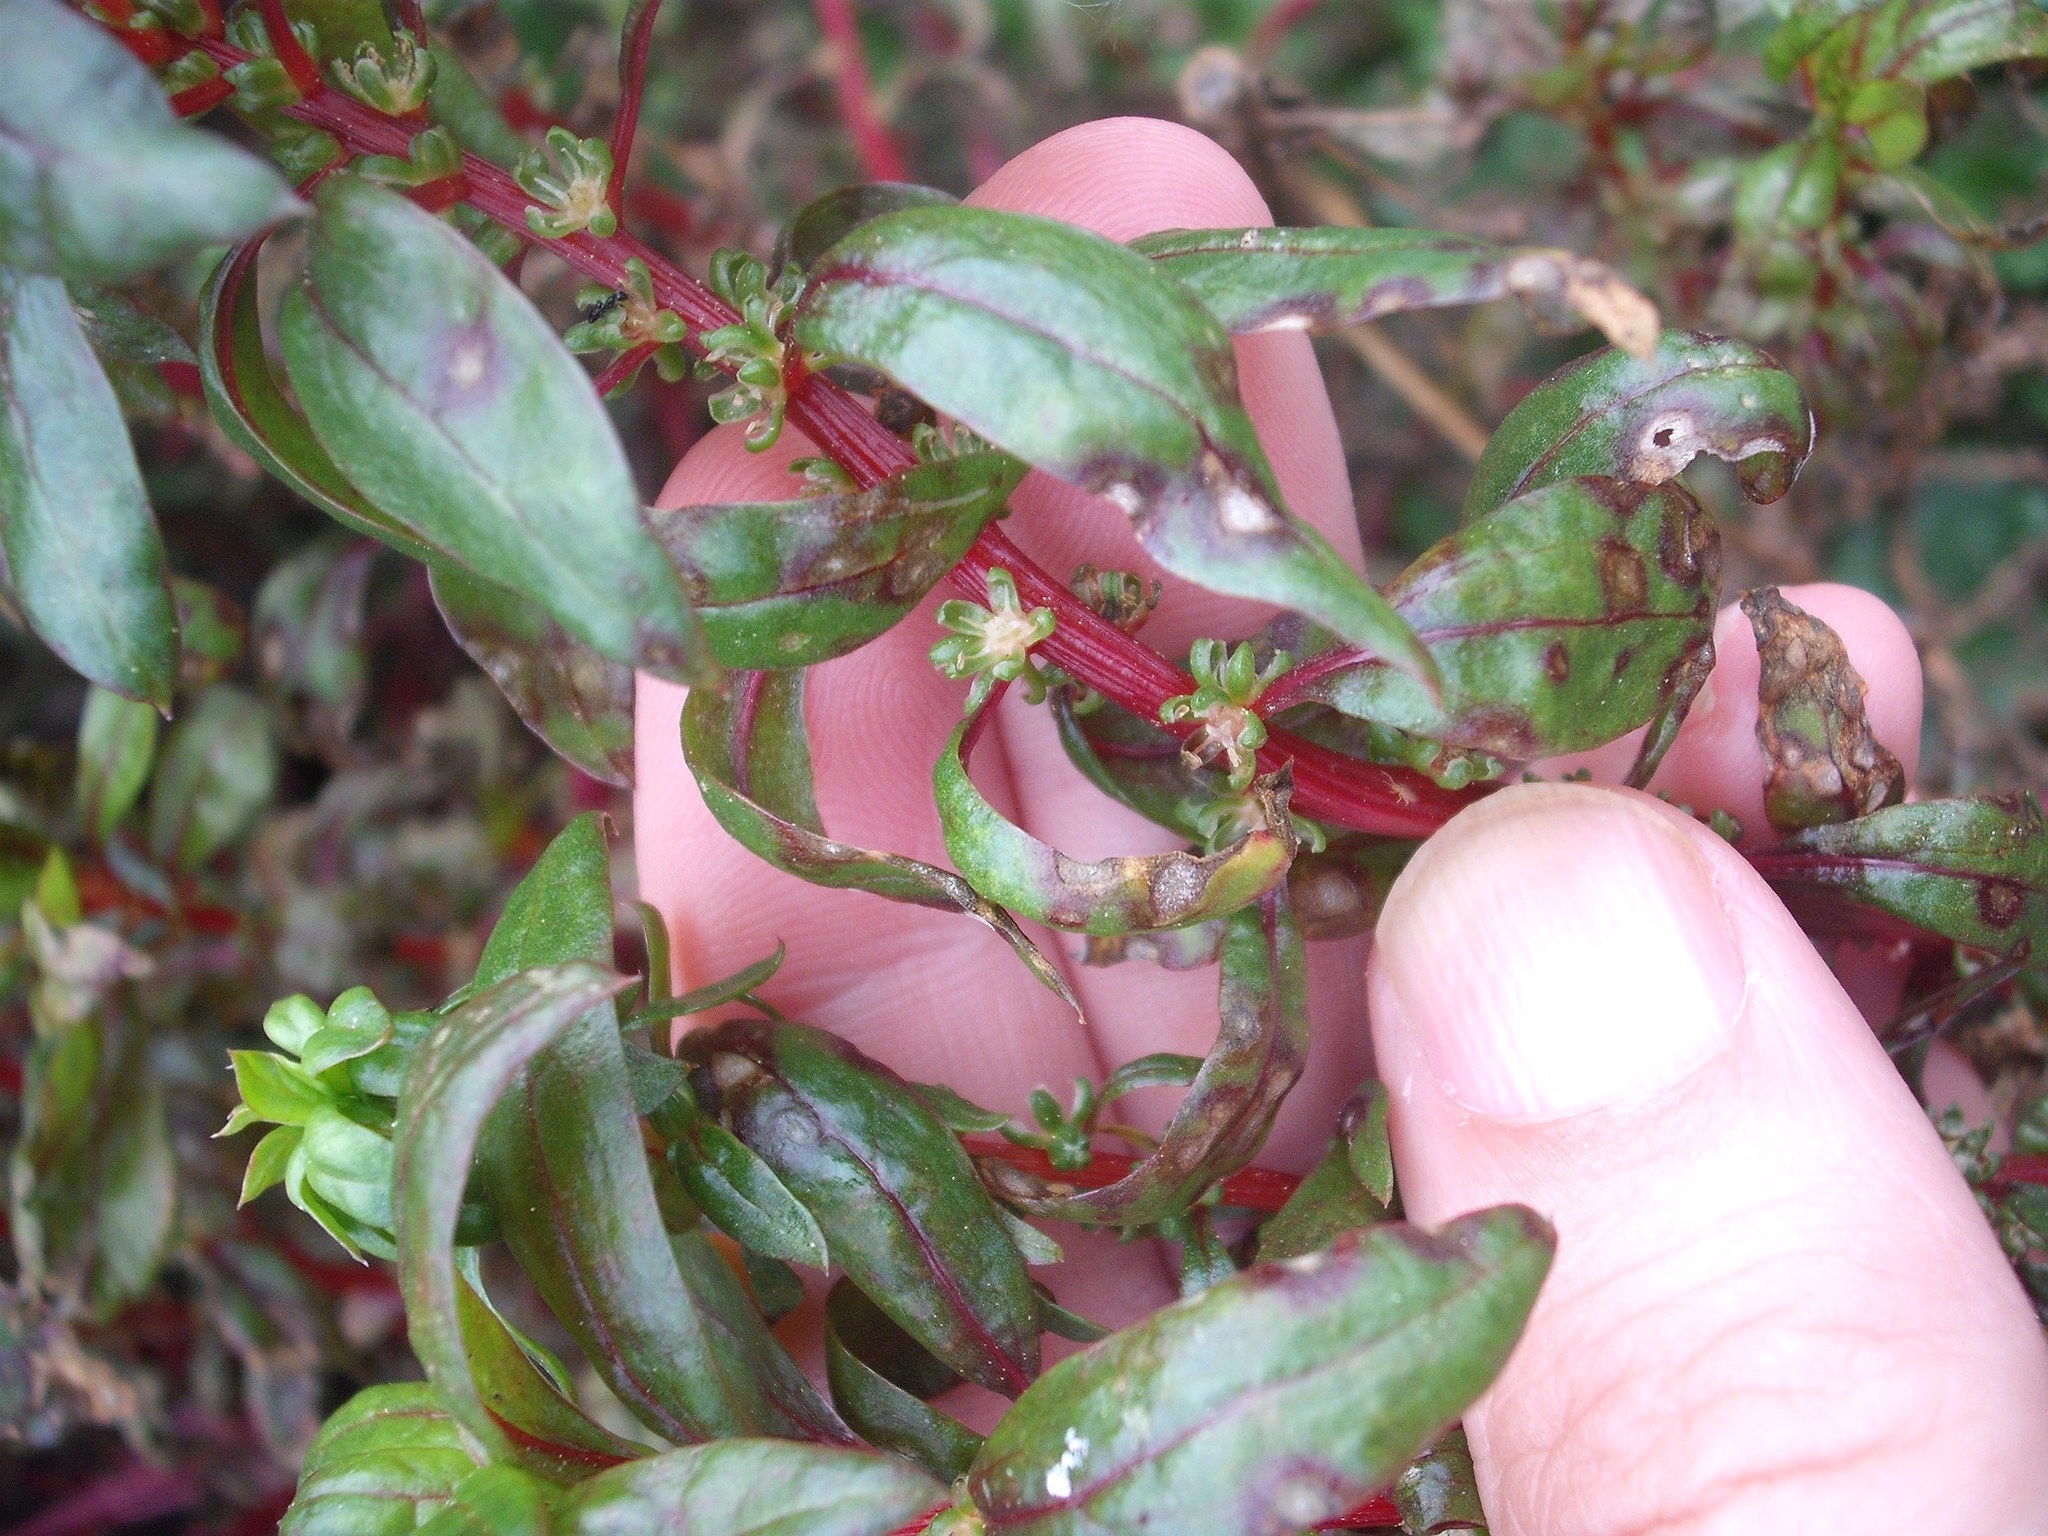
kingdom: Plantae
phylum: Tracheophyta
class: Magnoliopsida
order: Caryophyllales
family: Amaranthaceae
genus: Beta
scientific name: Beta vulgaris
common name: Beet
